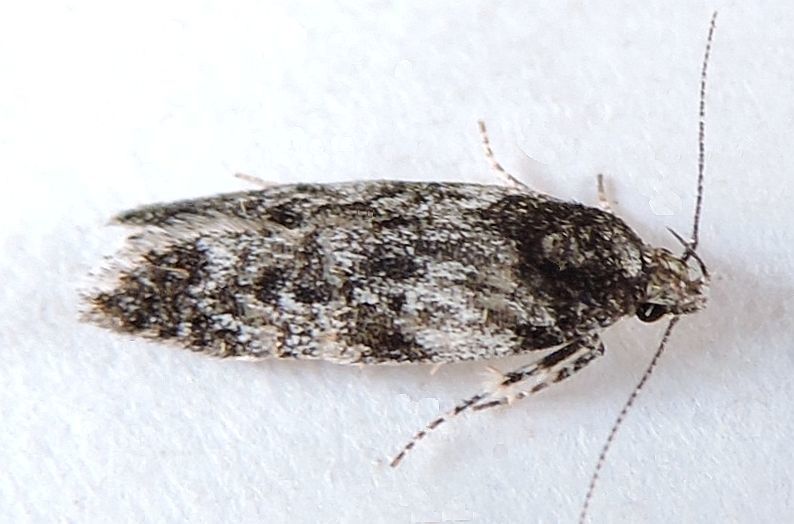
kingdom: Animalia
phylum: Arthropoda
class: Insecta
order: Lepidoptera
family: Gelechiidae
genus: Gelechia
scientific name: Gelechia lynceella
